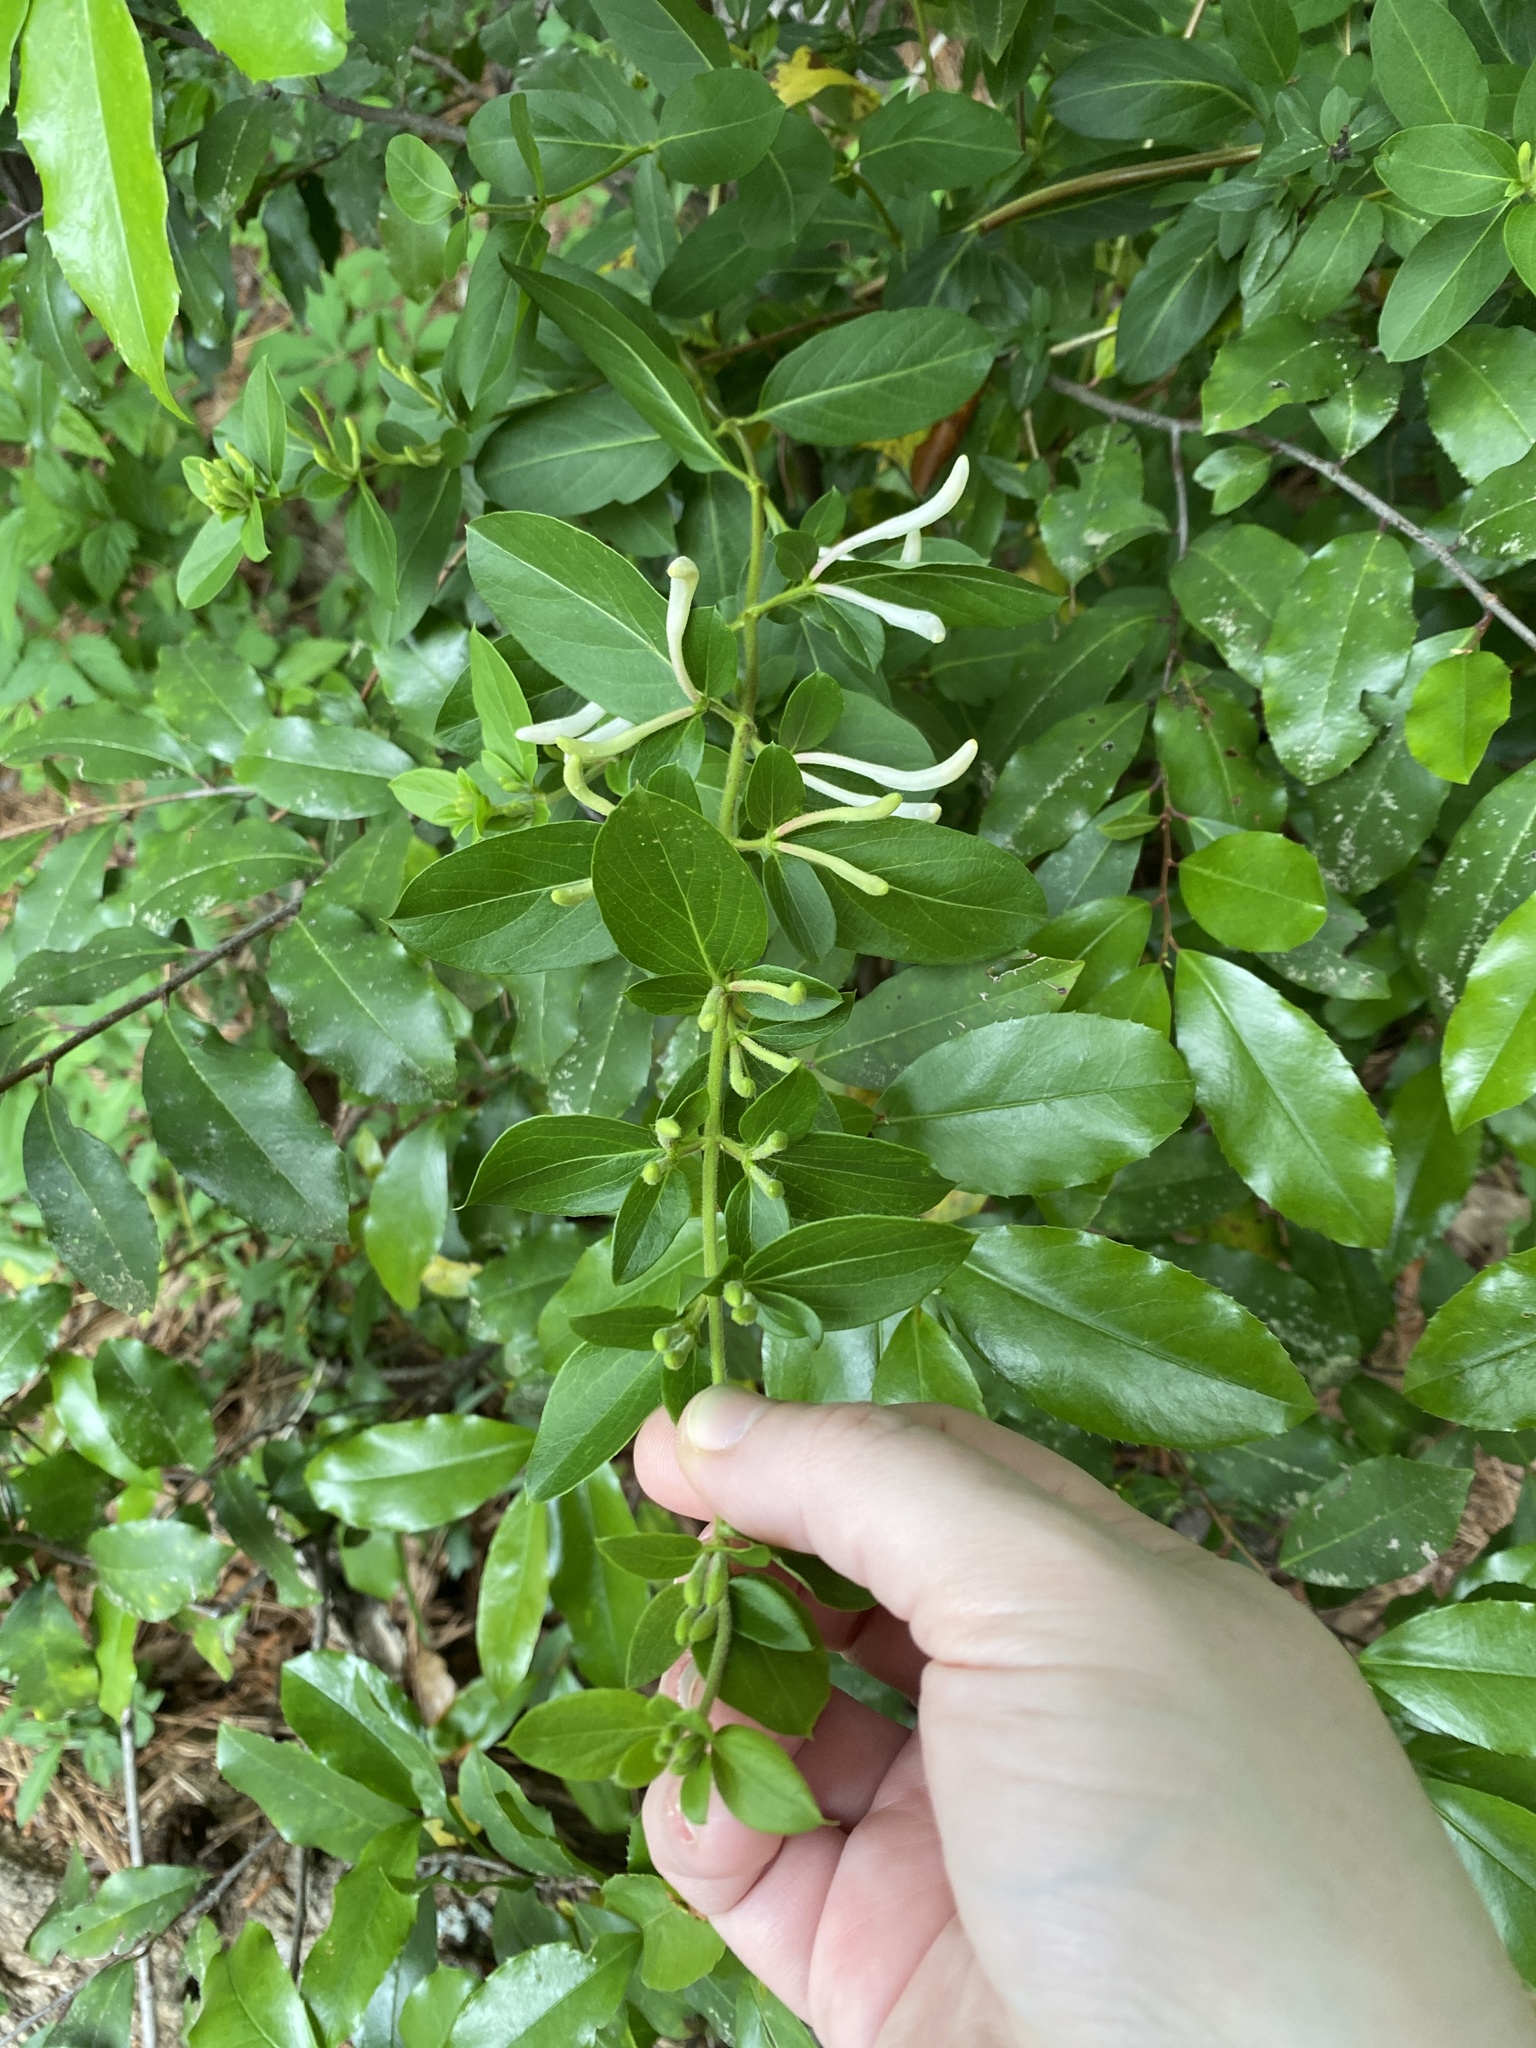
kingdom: Plantae
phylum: Tracheophyta
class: Magnoliopsida
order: Dipsacales
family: Caprifoliaceae
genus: Lonicera
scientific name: Lonicera japonica
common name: Japanese honeysuckle
